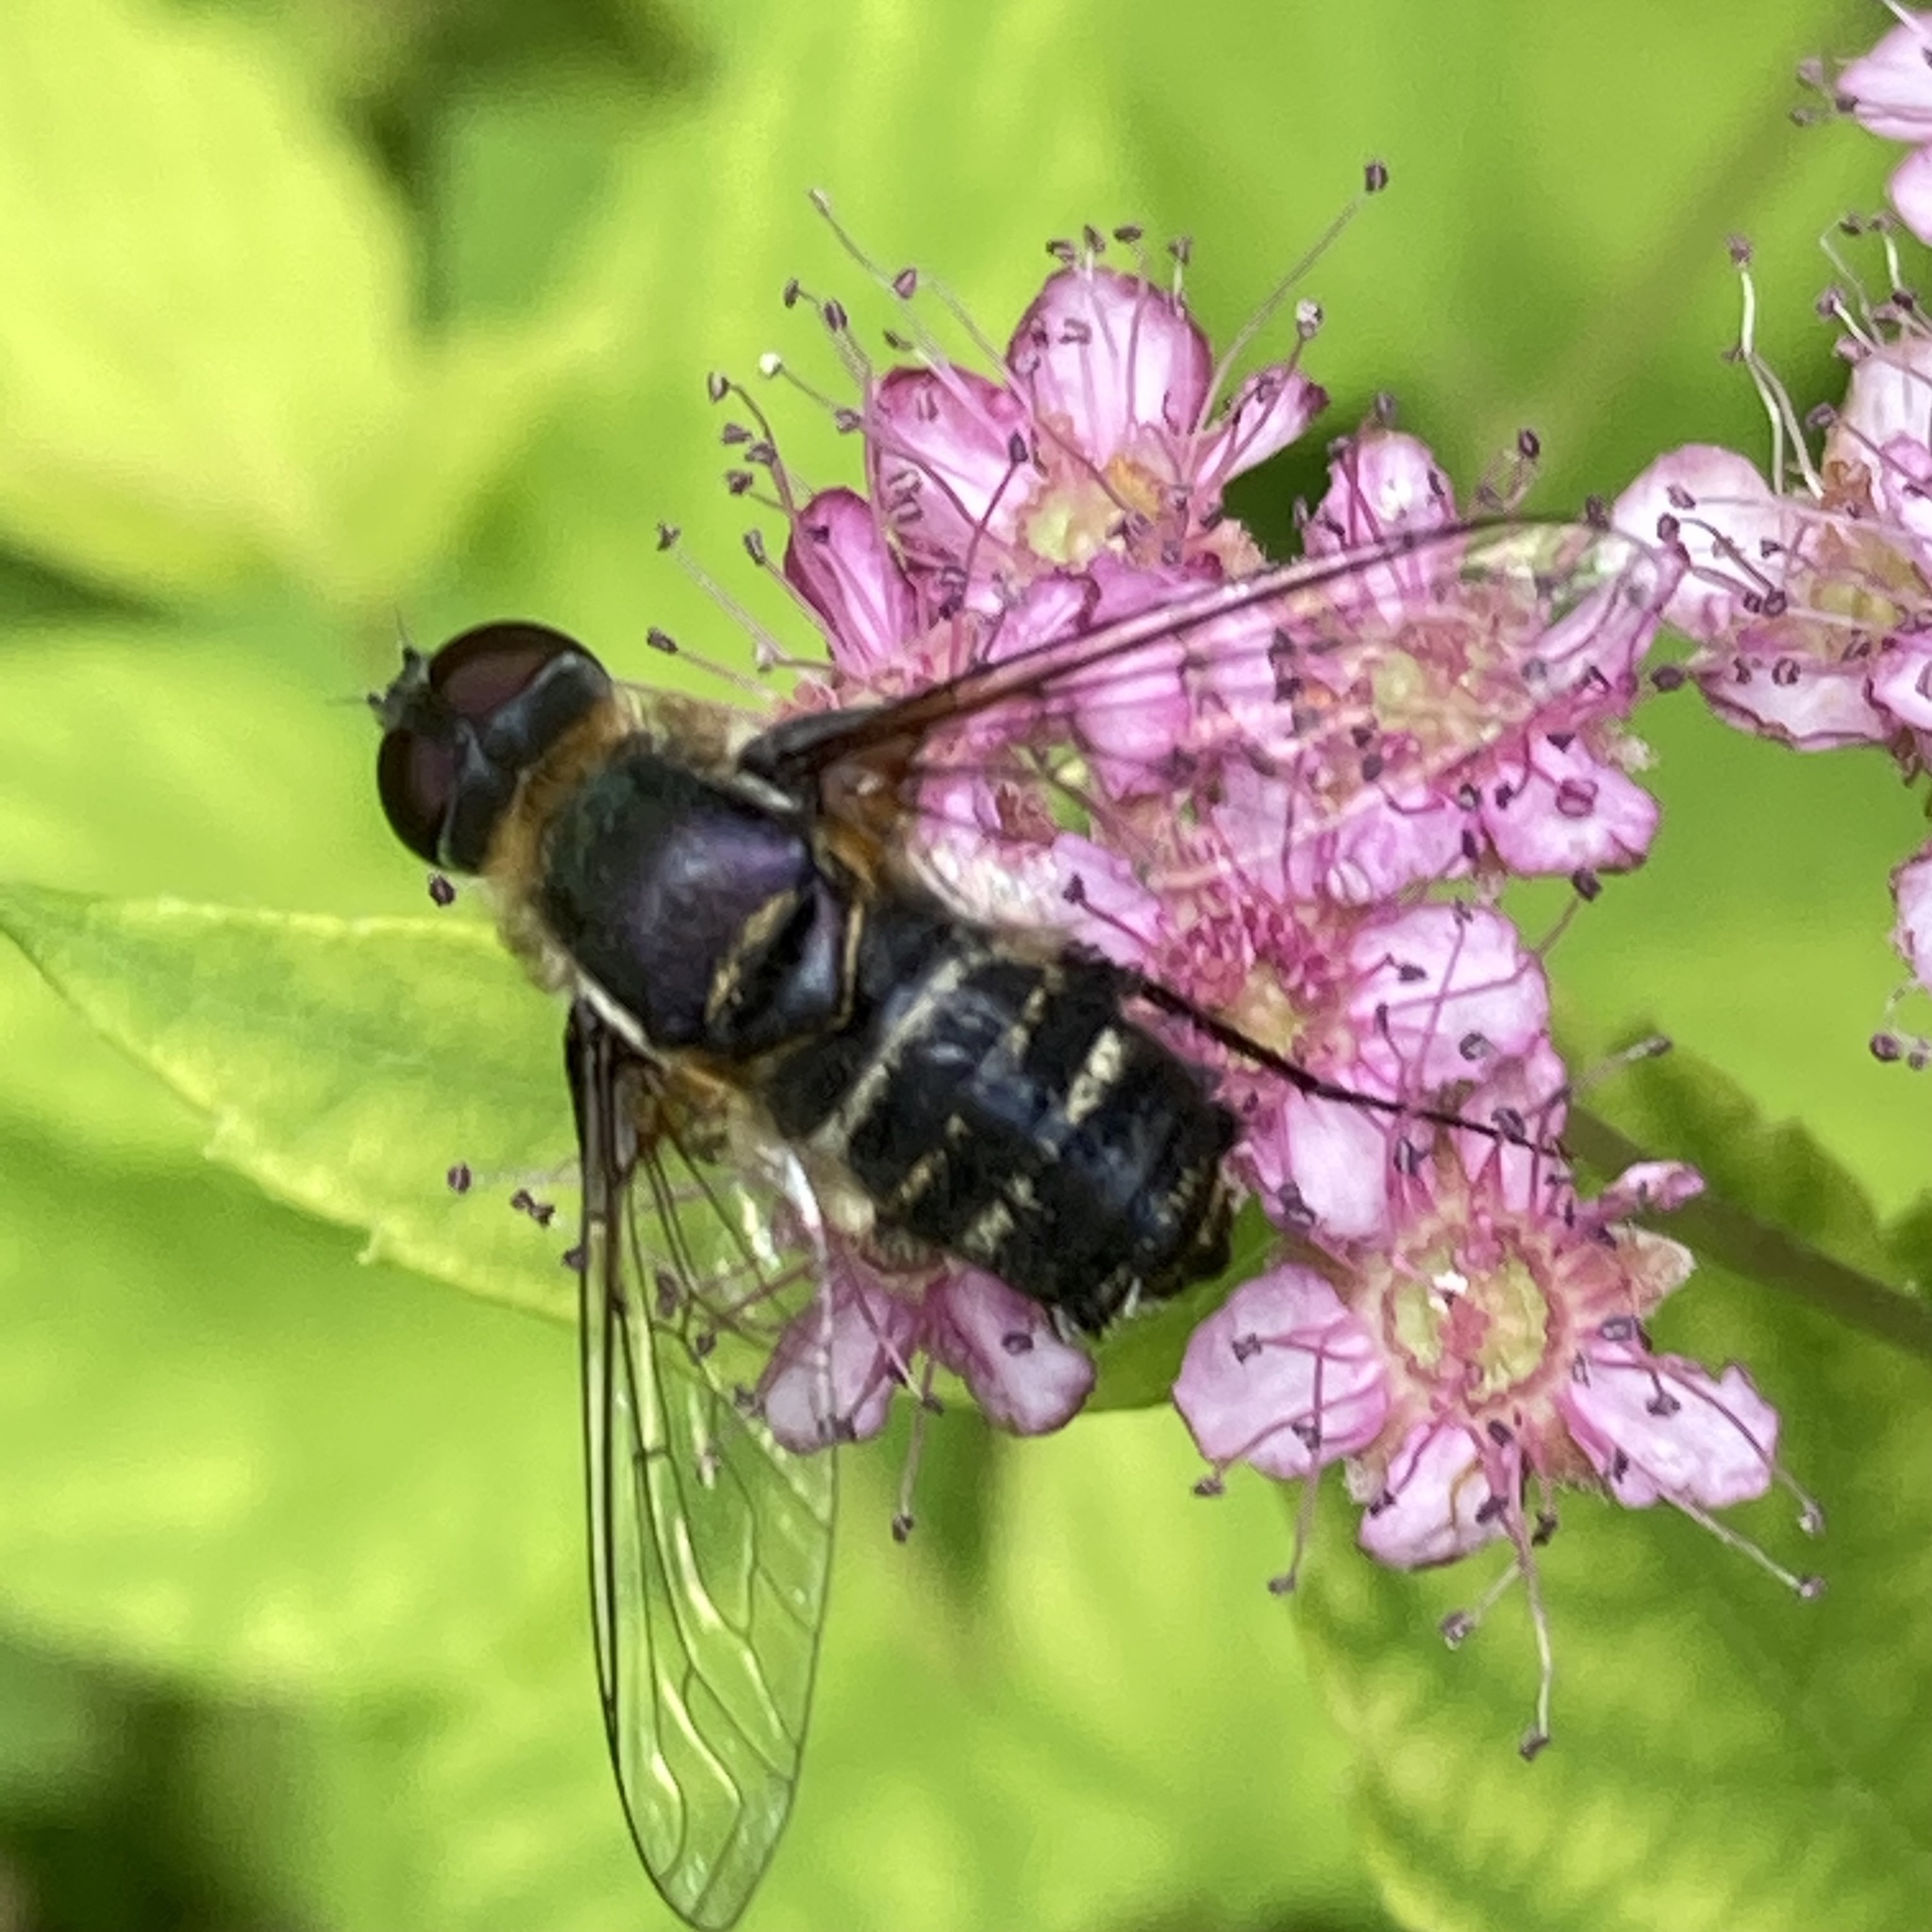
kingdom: Animalia
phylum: Arthropoda
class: Insecta
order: Diptera
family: Bombyliidae
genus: Villa
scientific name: Villa
